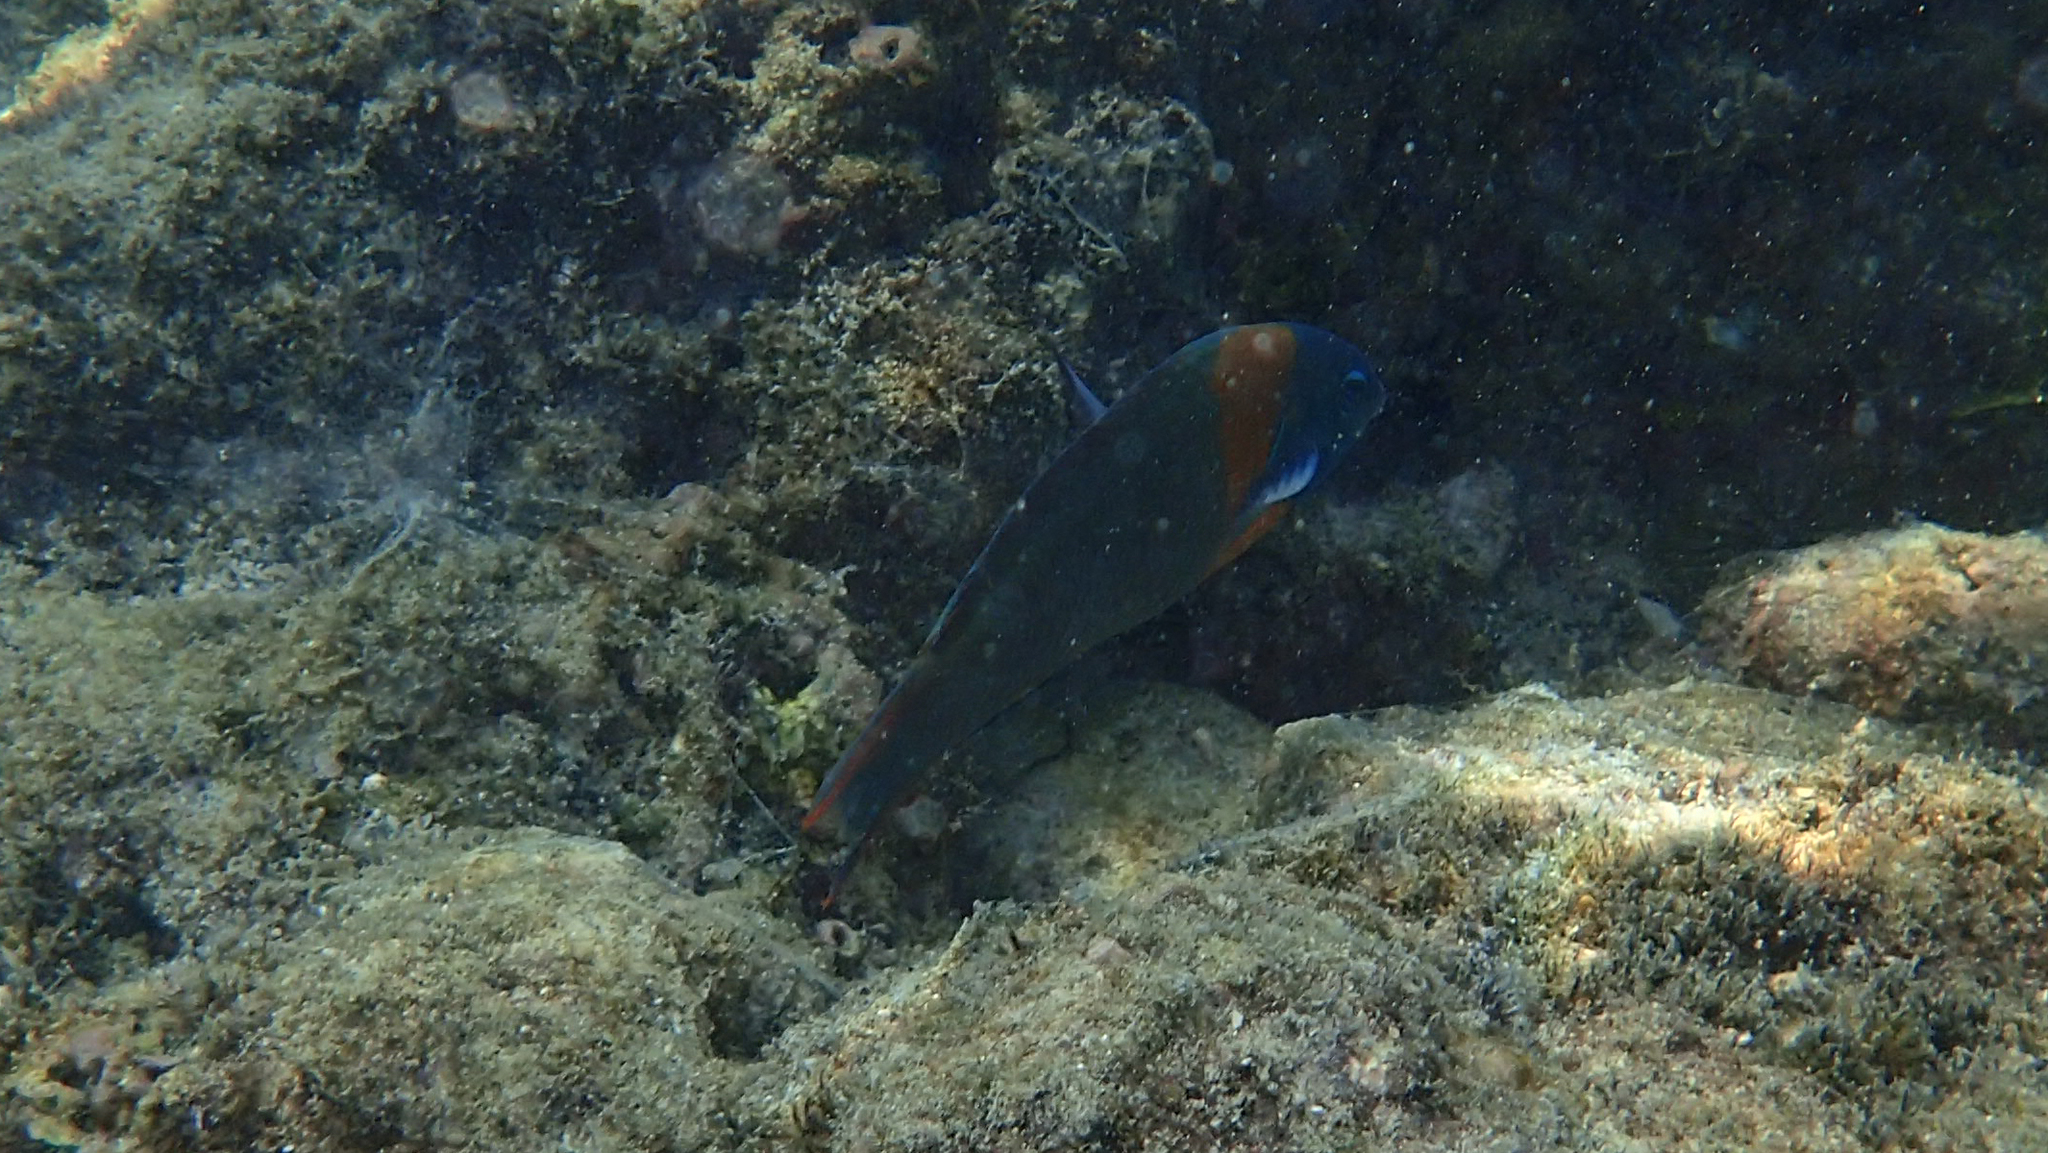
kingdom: Animalia
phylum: Chordata
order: Perciformes
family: Labridae
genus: Thalassoma
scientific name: Thalassoma duperrey
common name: Saddle wrasse
